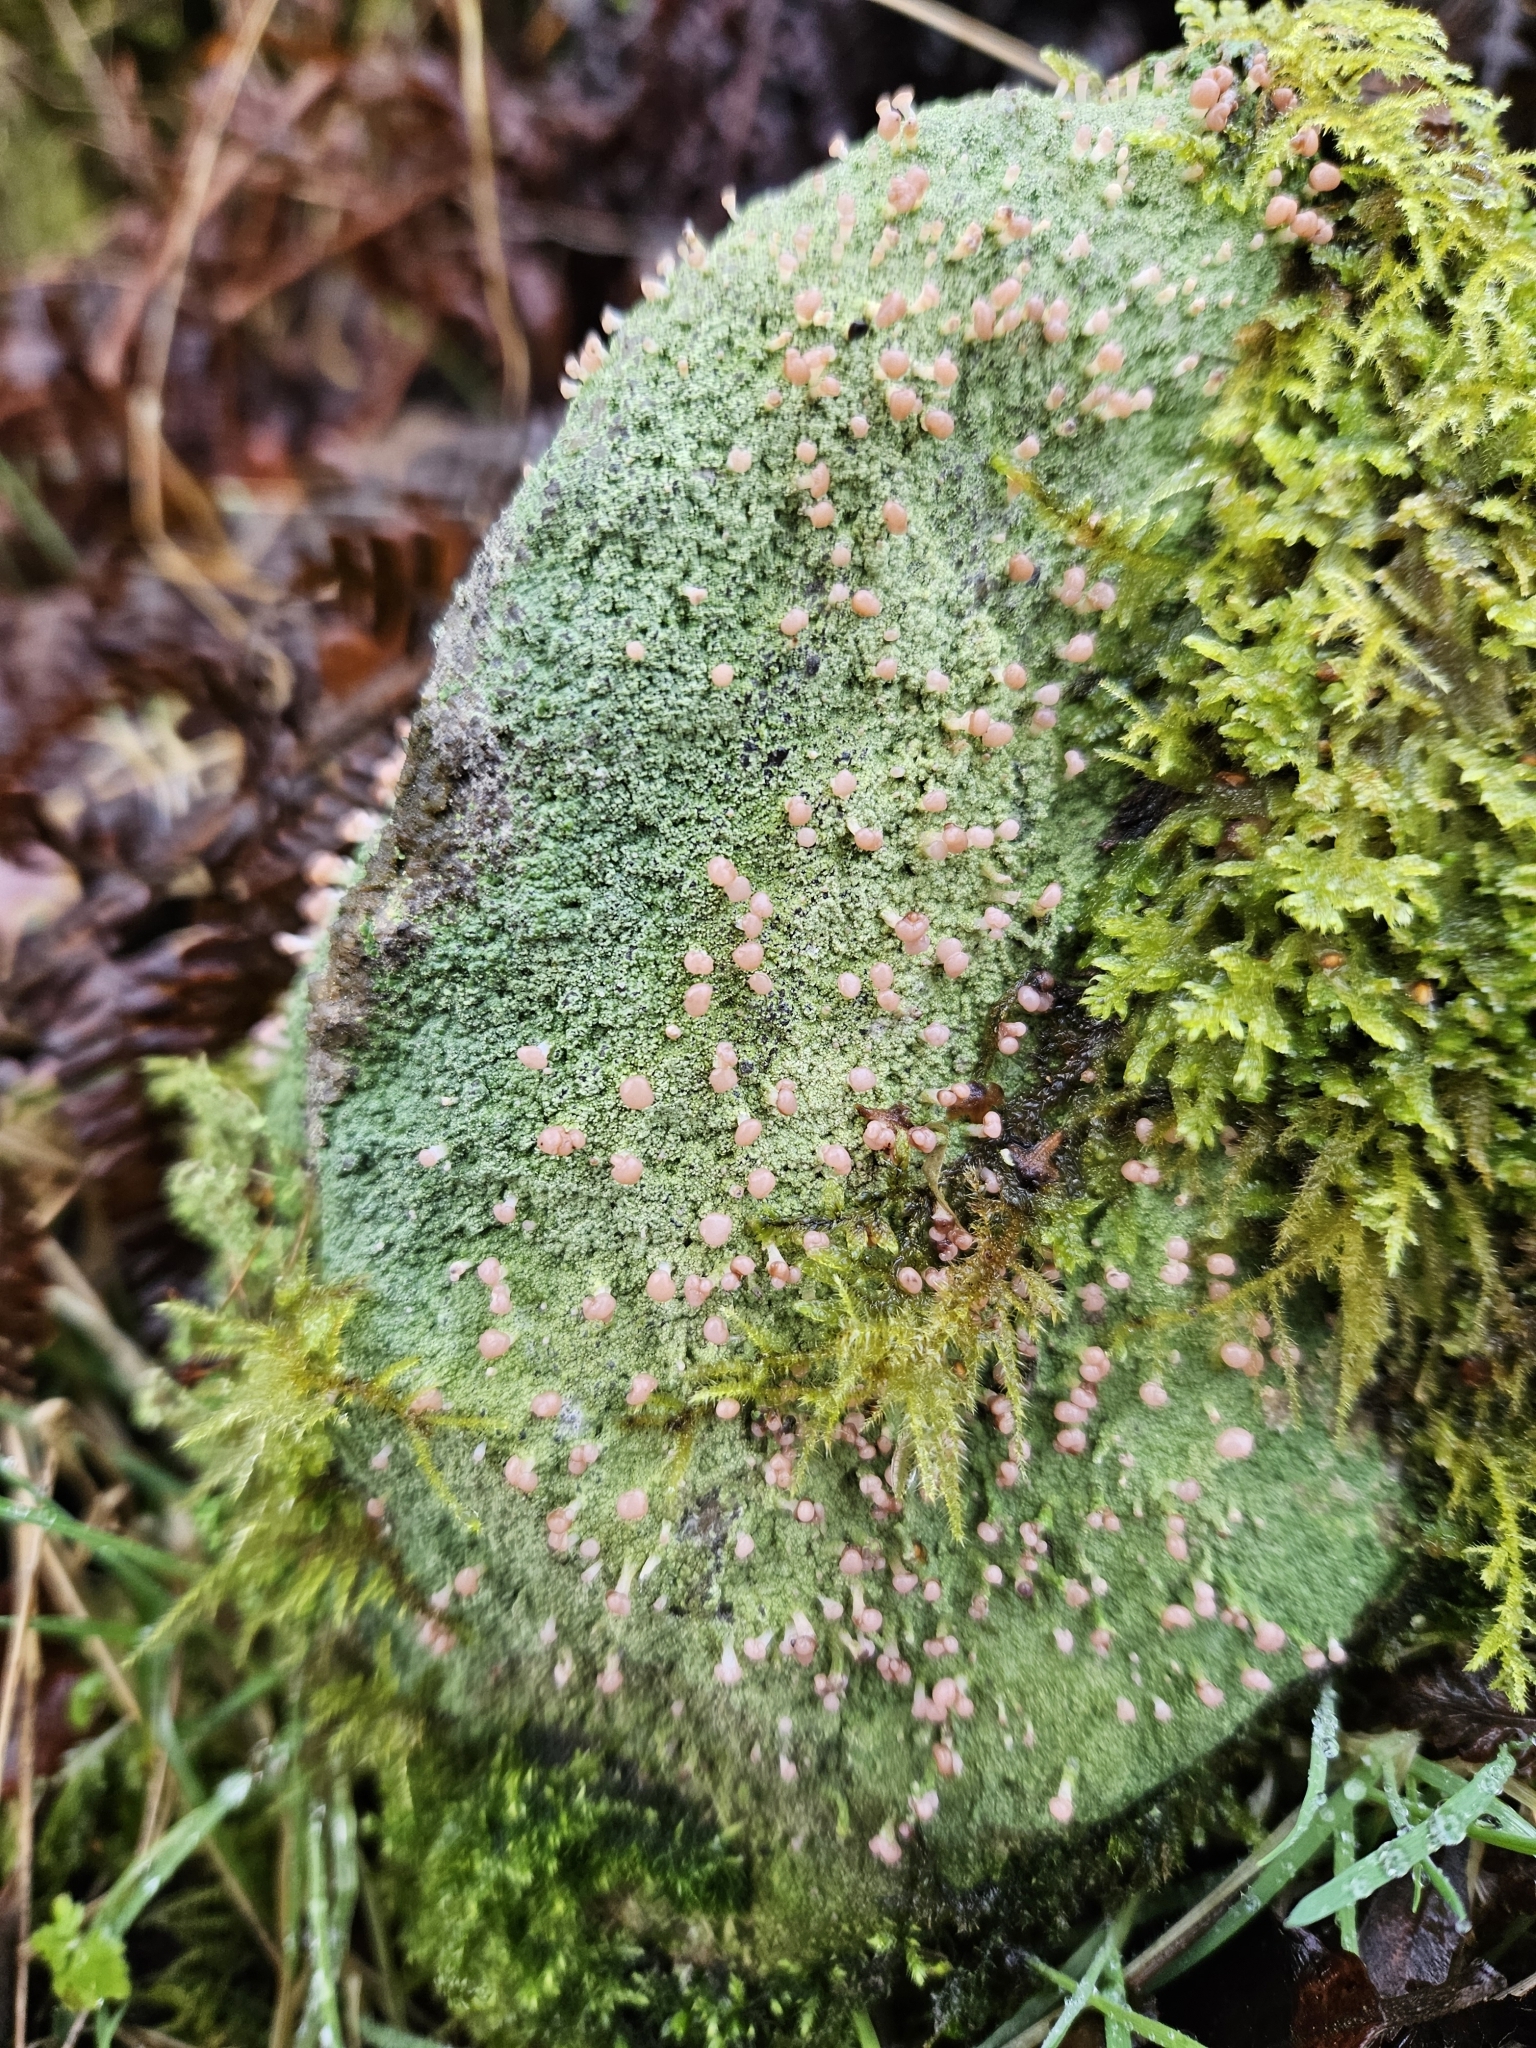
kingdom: Fungi
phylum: Ascomycota
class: Lecanoromycetes
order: Baeomycetales
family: Baeomycetaceae
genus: Baeomyces
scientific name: Baeomyces rufus
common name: Brown beret lichen
